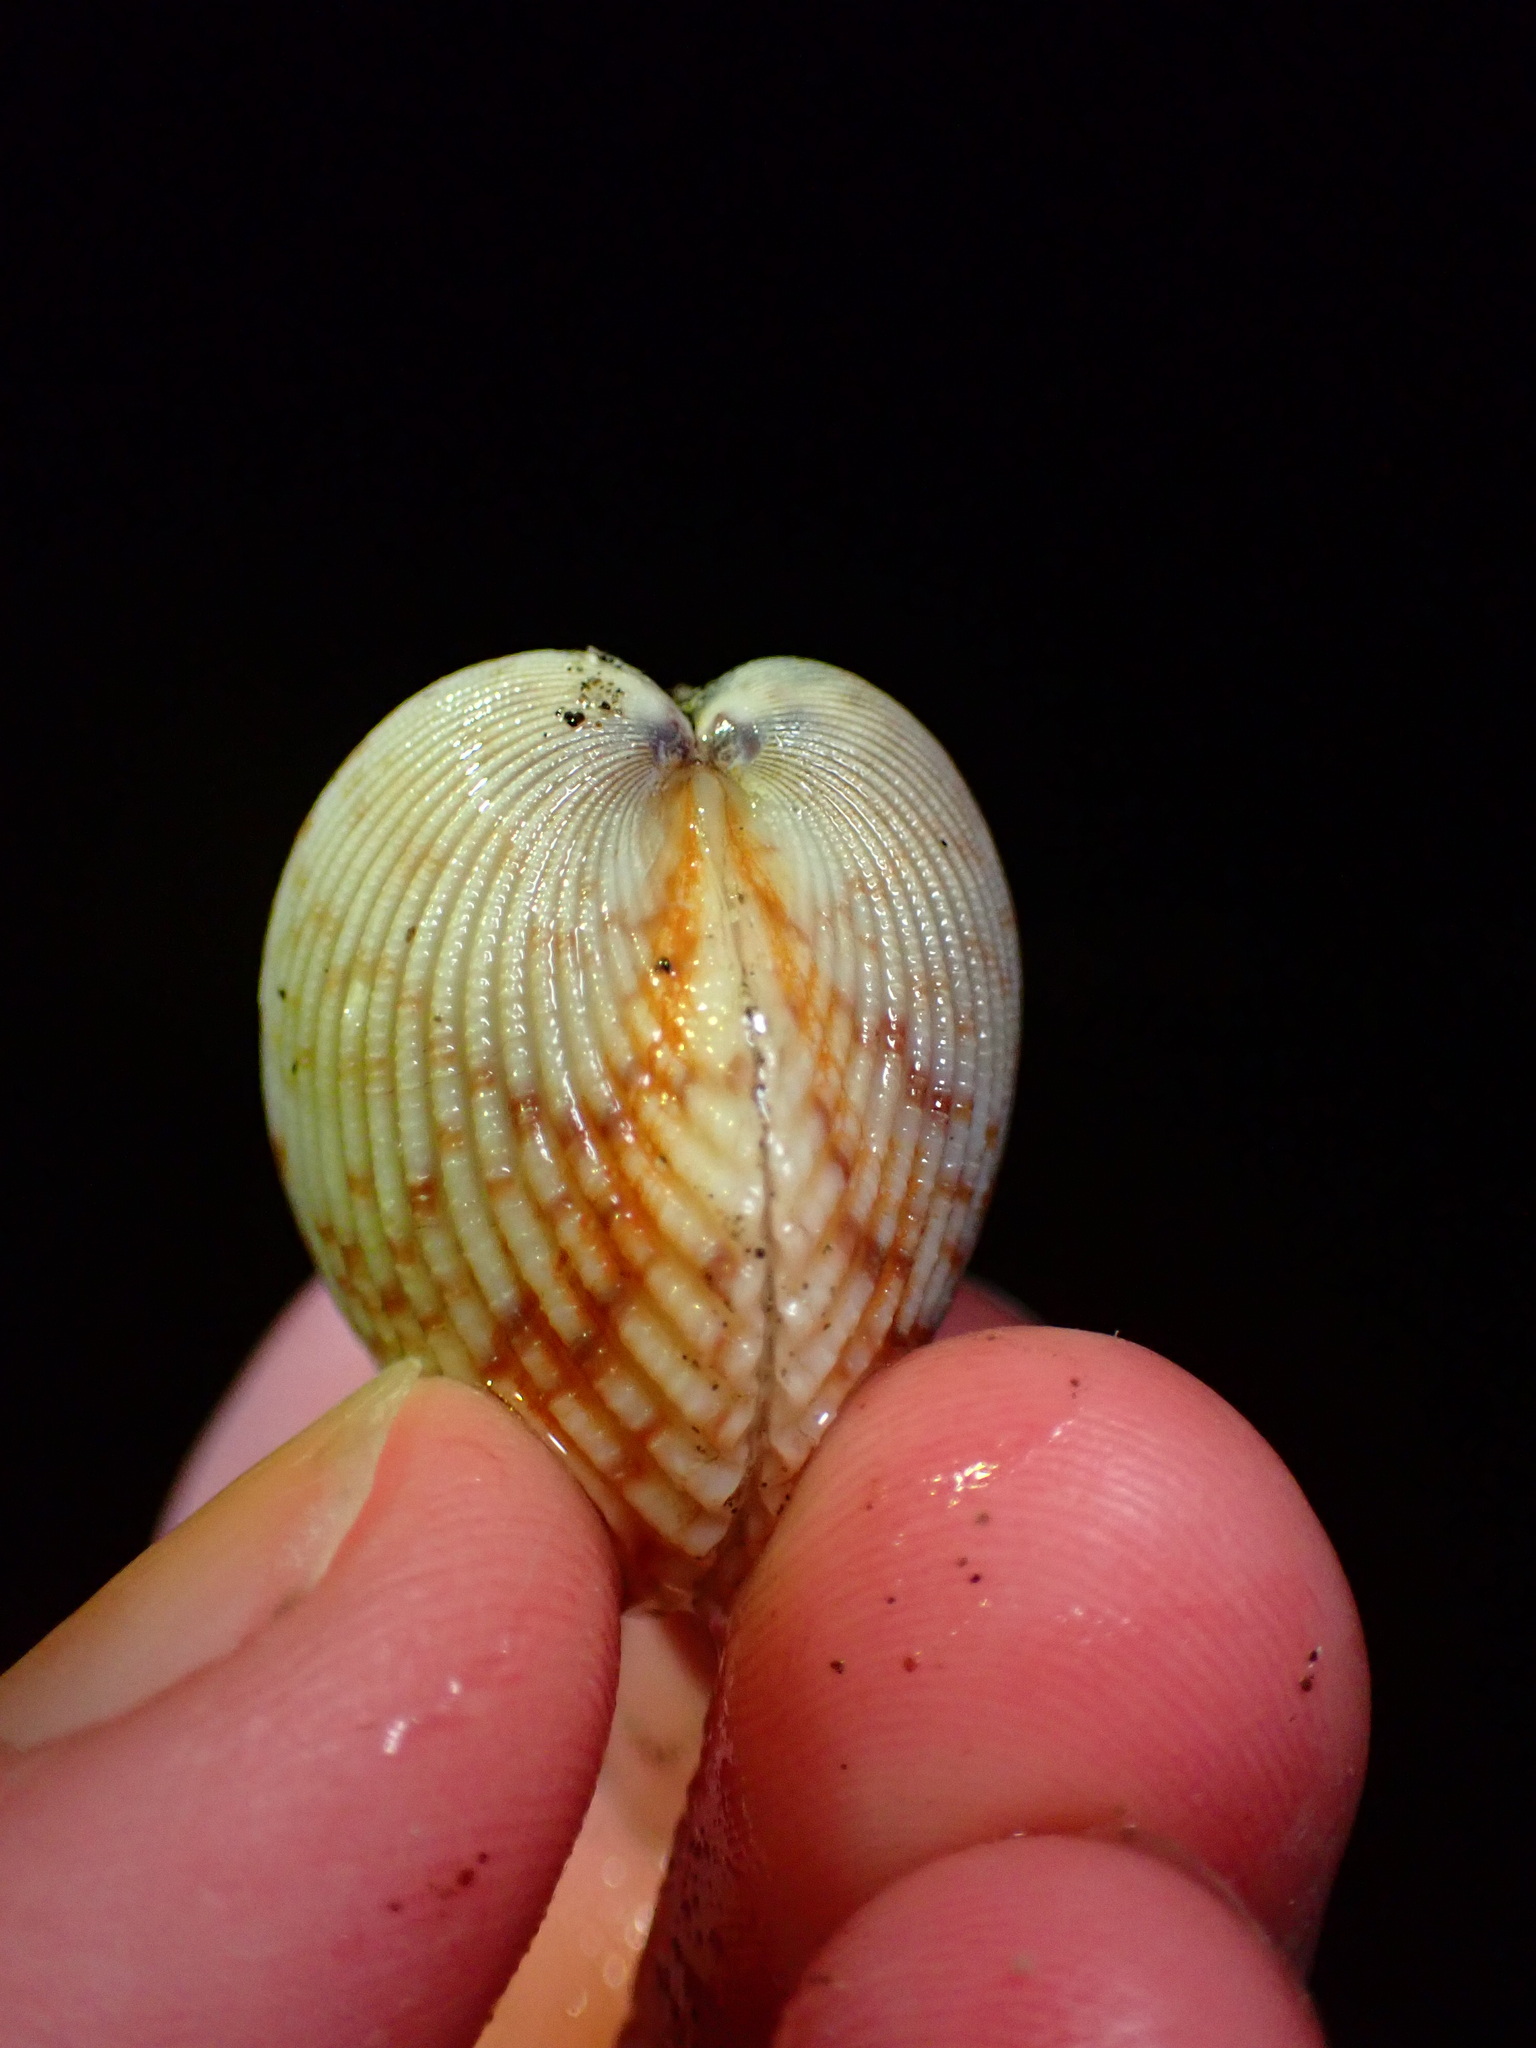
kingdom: Animalia
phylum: Mollusca
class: Bivalvia
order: Cardiida
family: Cardiidae
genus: Clinocardium
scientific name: Clinocardium nuttallii
